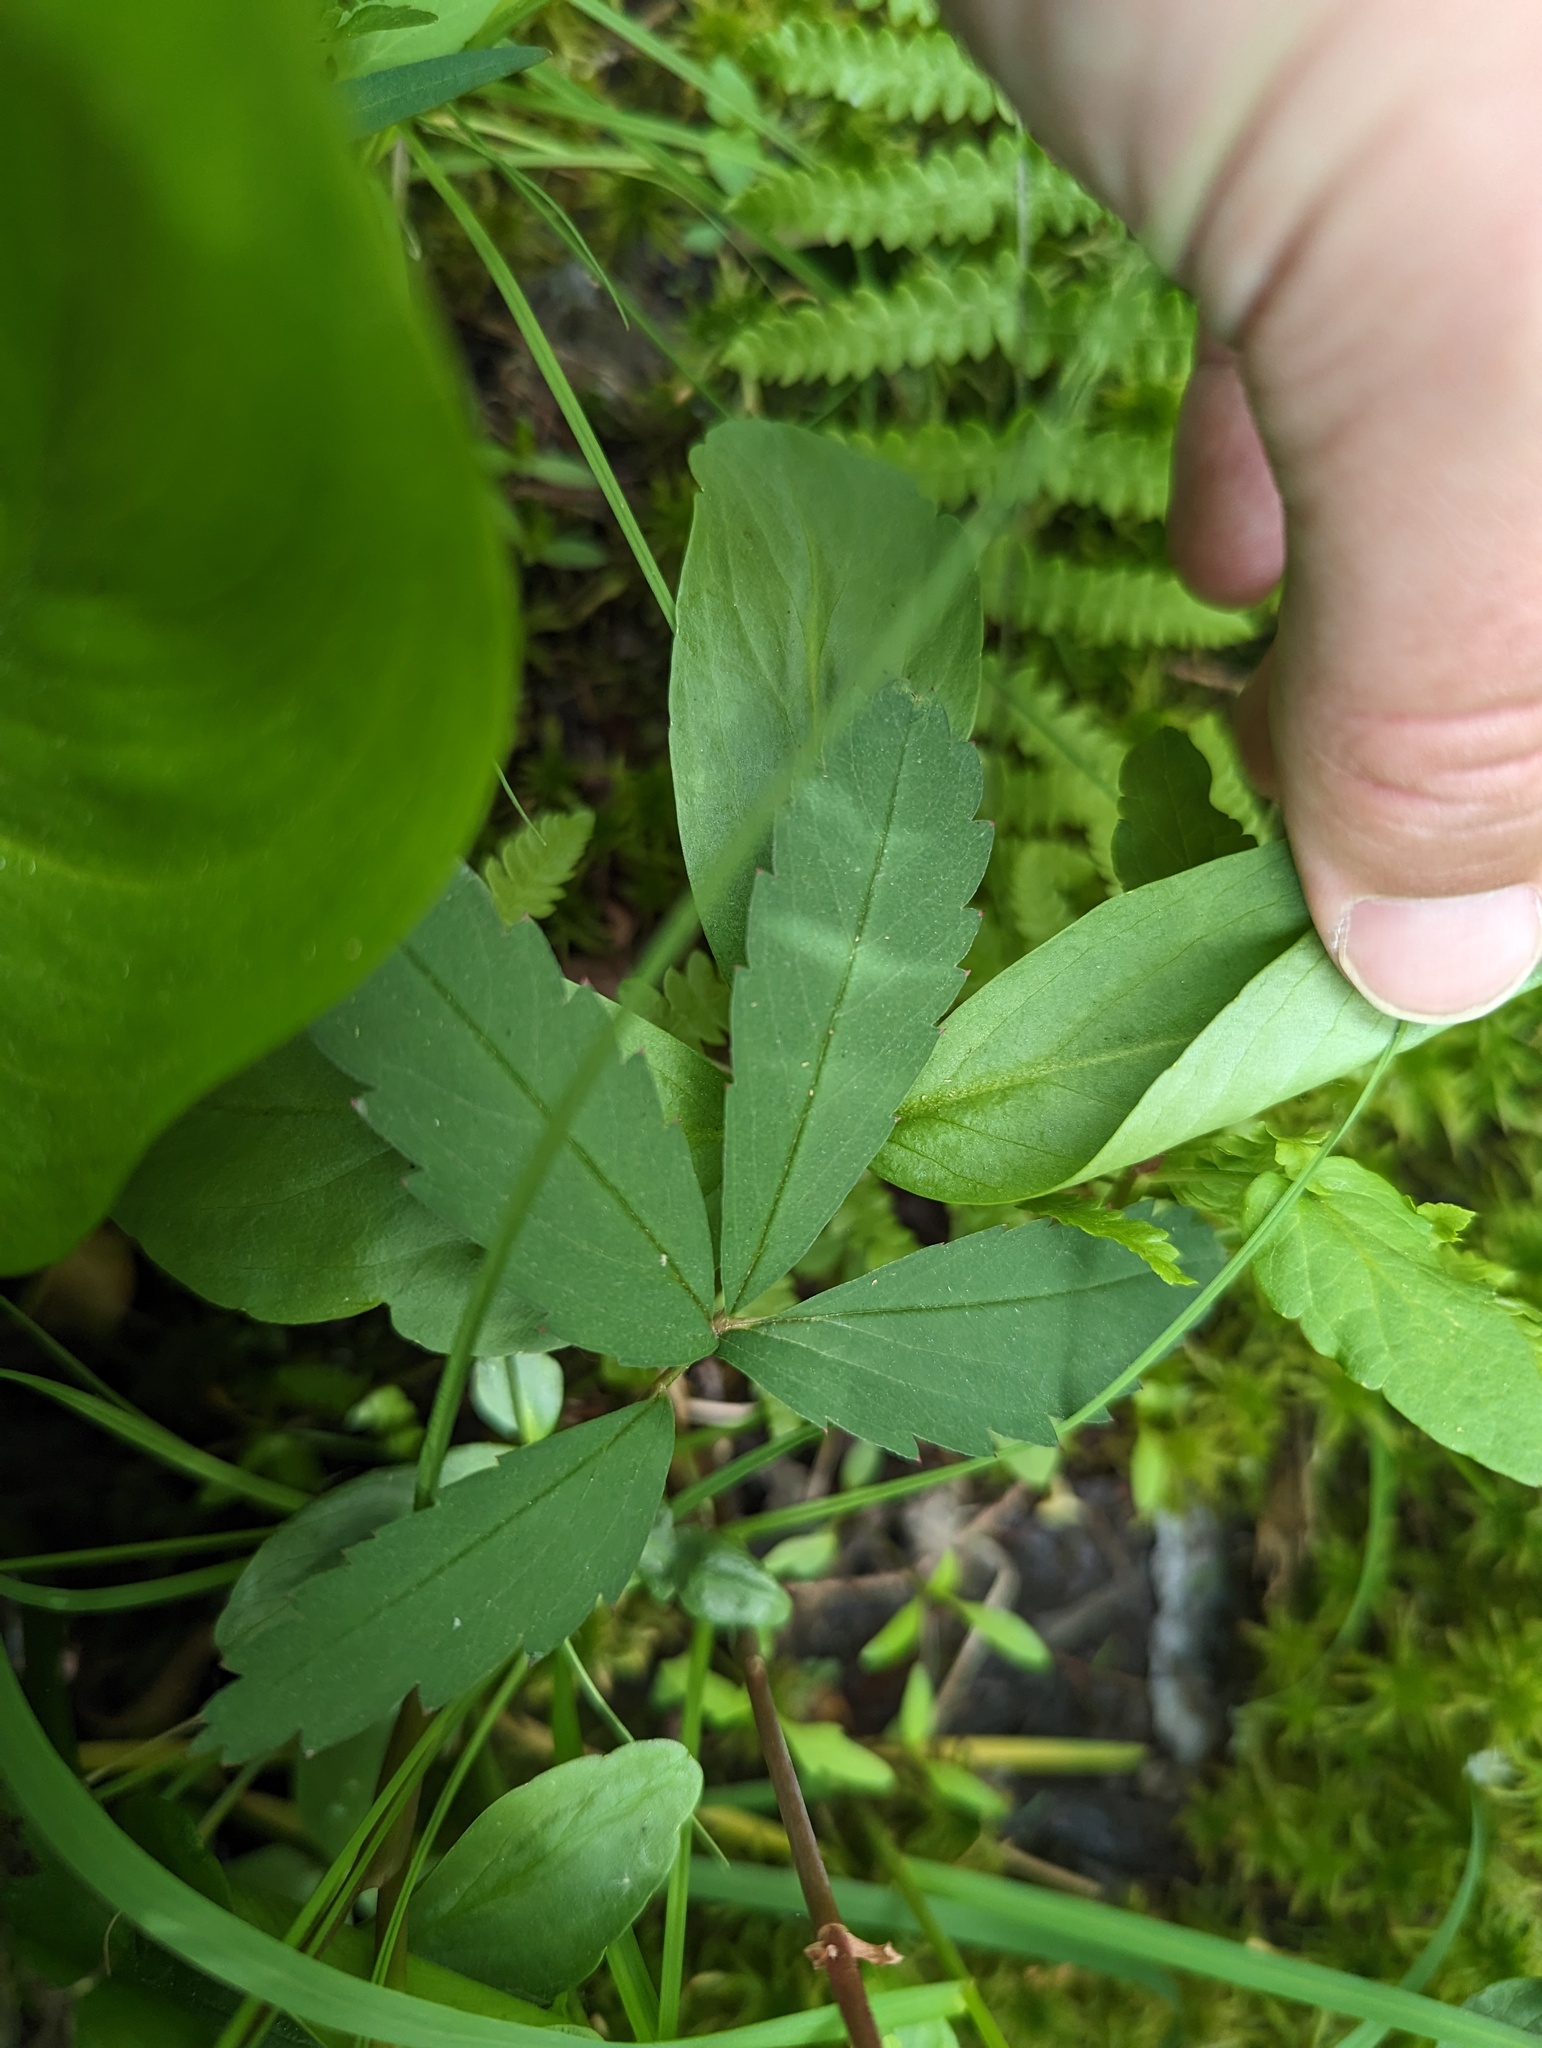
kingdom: Plantae
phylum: Tracheophyta
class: Magnoliopsida
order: Rosales
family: Rosaceae
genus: Comarum
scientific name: Comarum palustre
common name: Marsh cinquefoil
